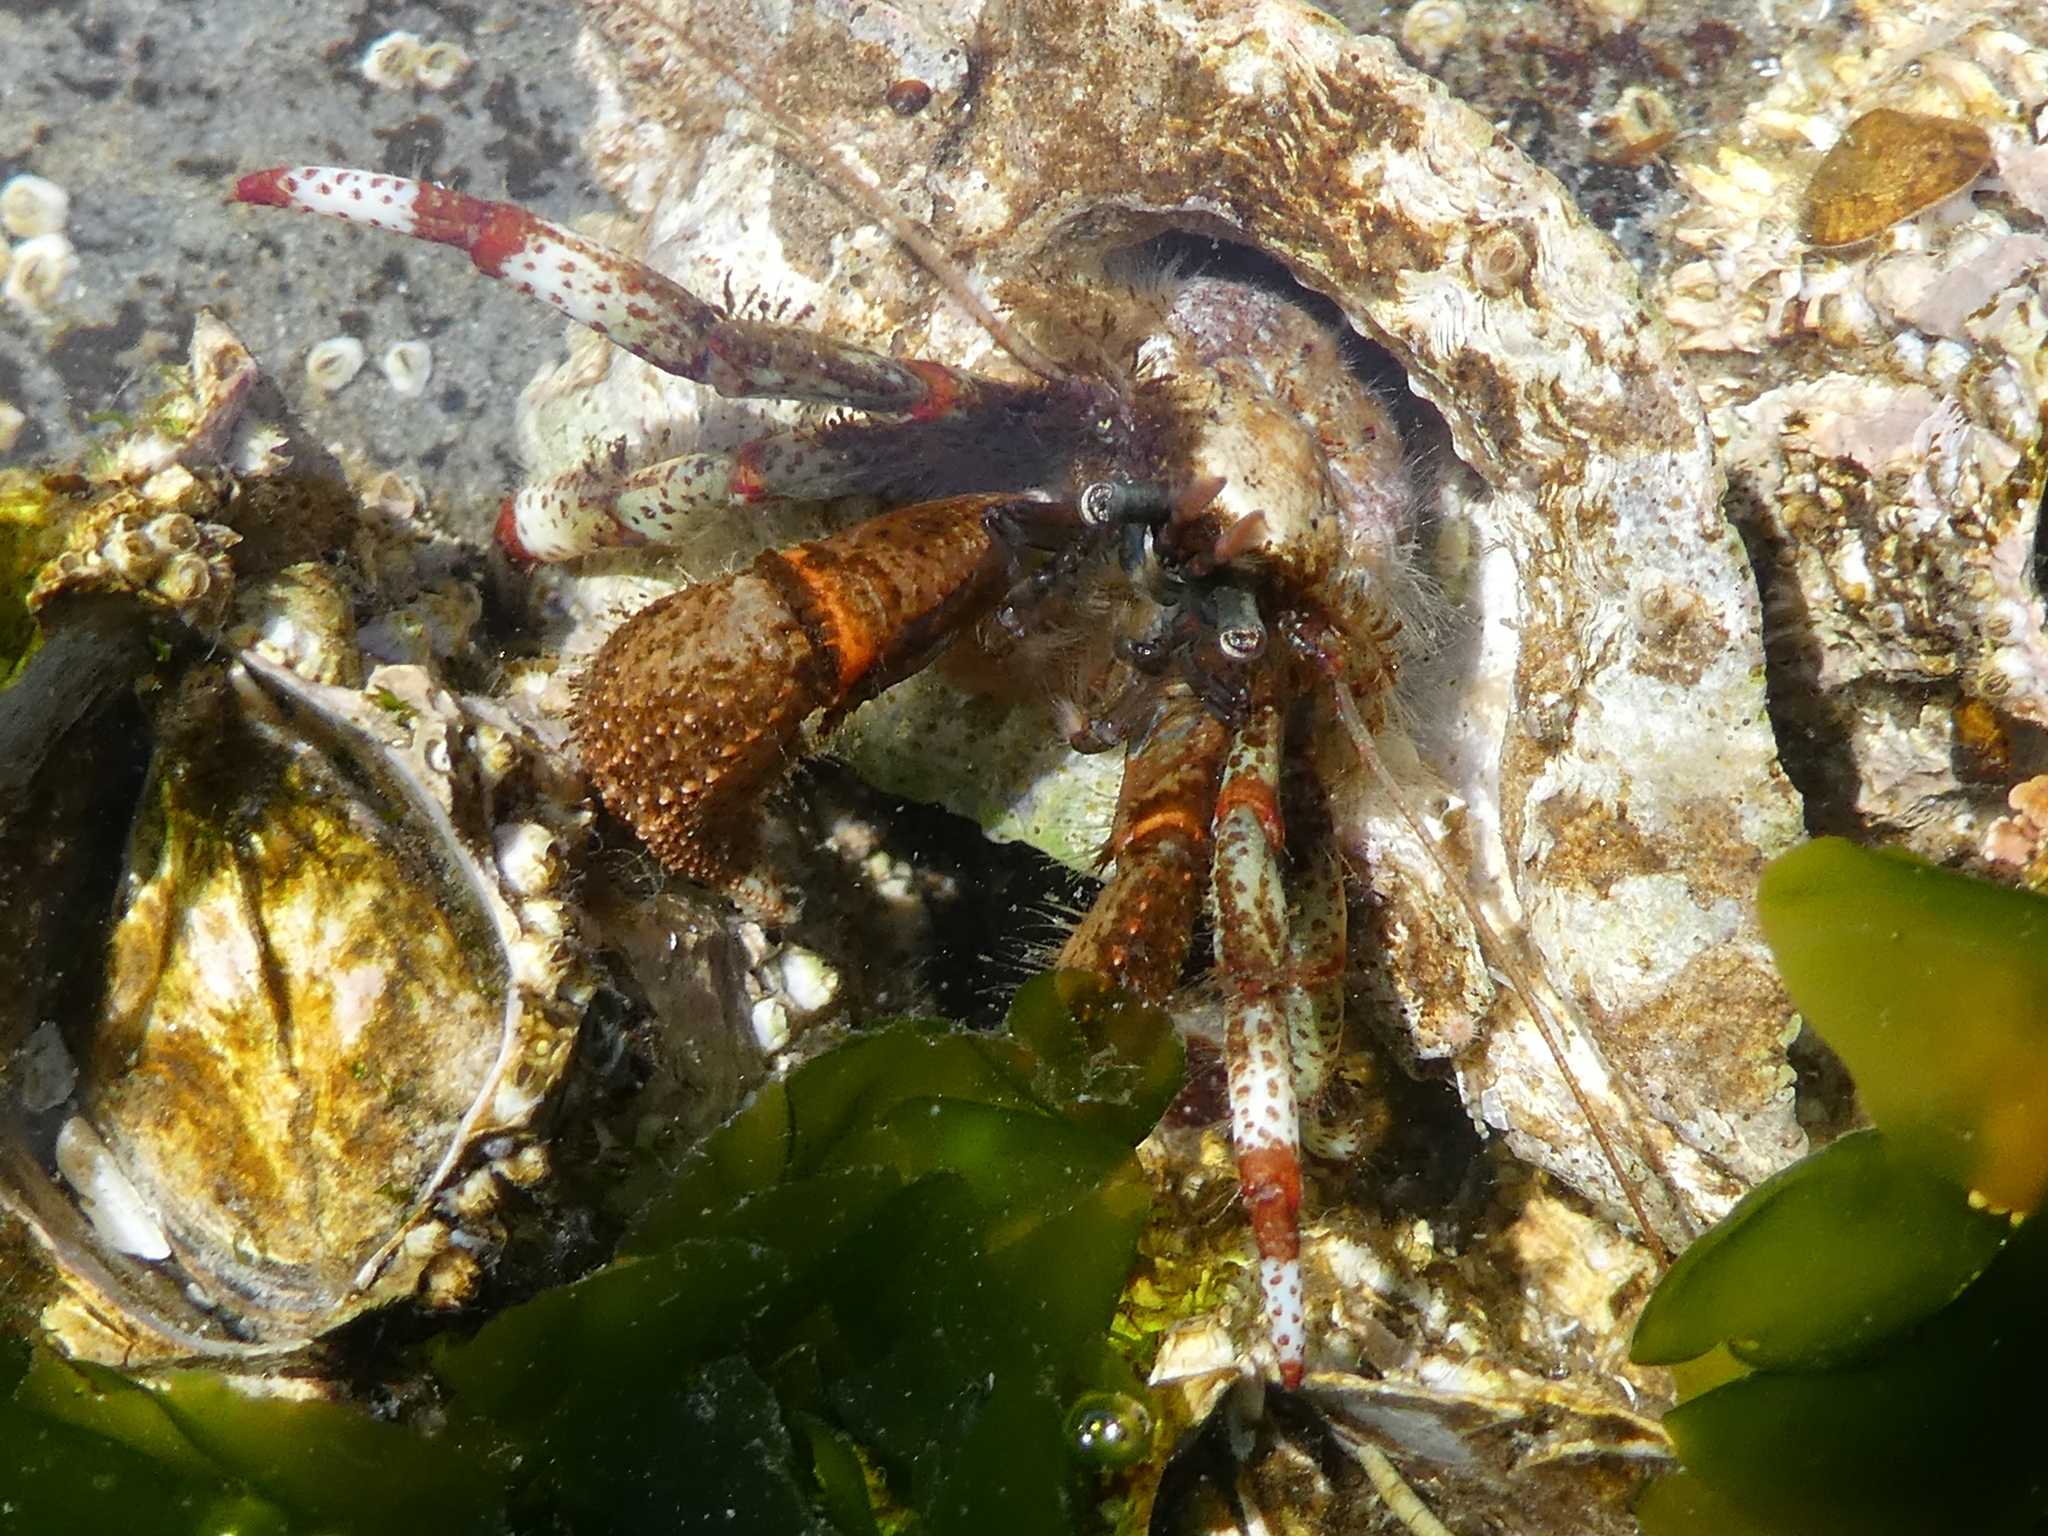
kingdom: Animalia
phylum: Arthropoda
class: Malacostraca
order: Decapoda
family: Paguridae
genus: Pagurus
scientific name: Pagurus beringanus
